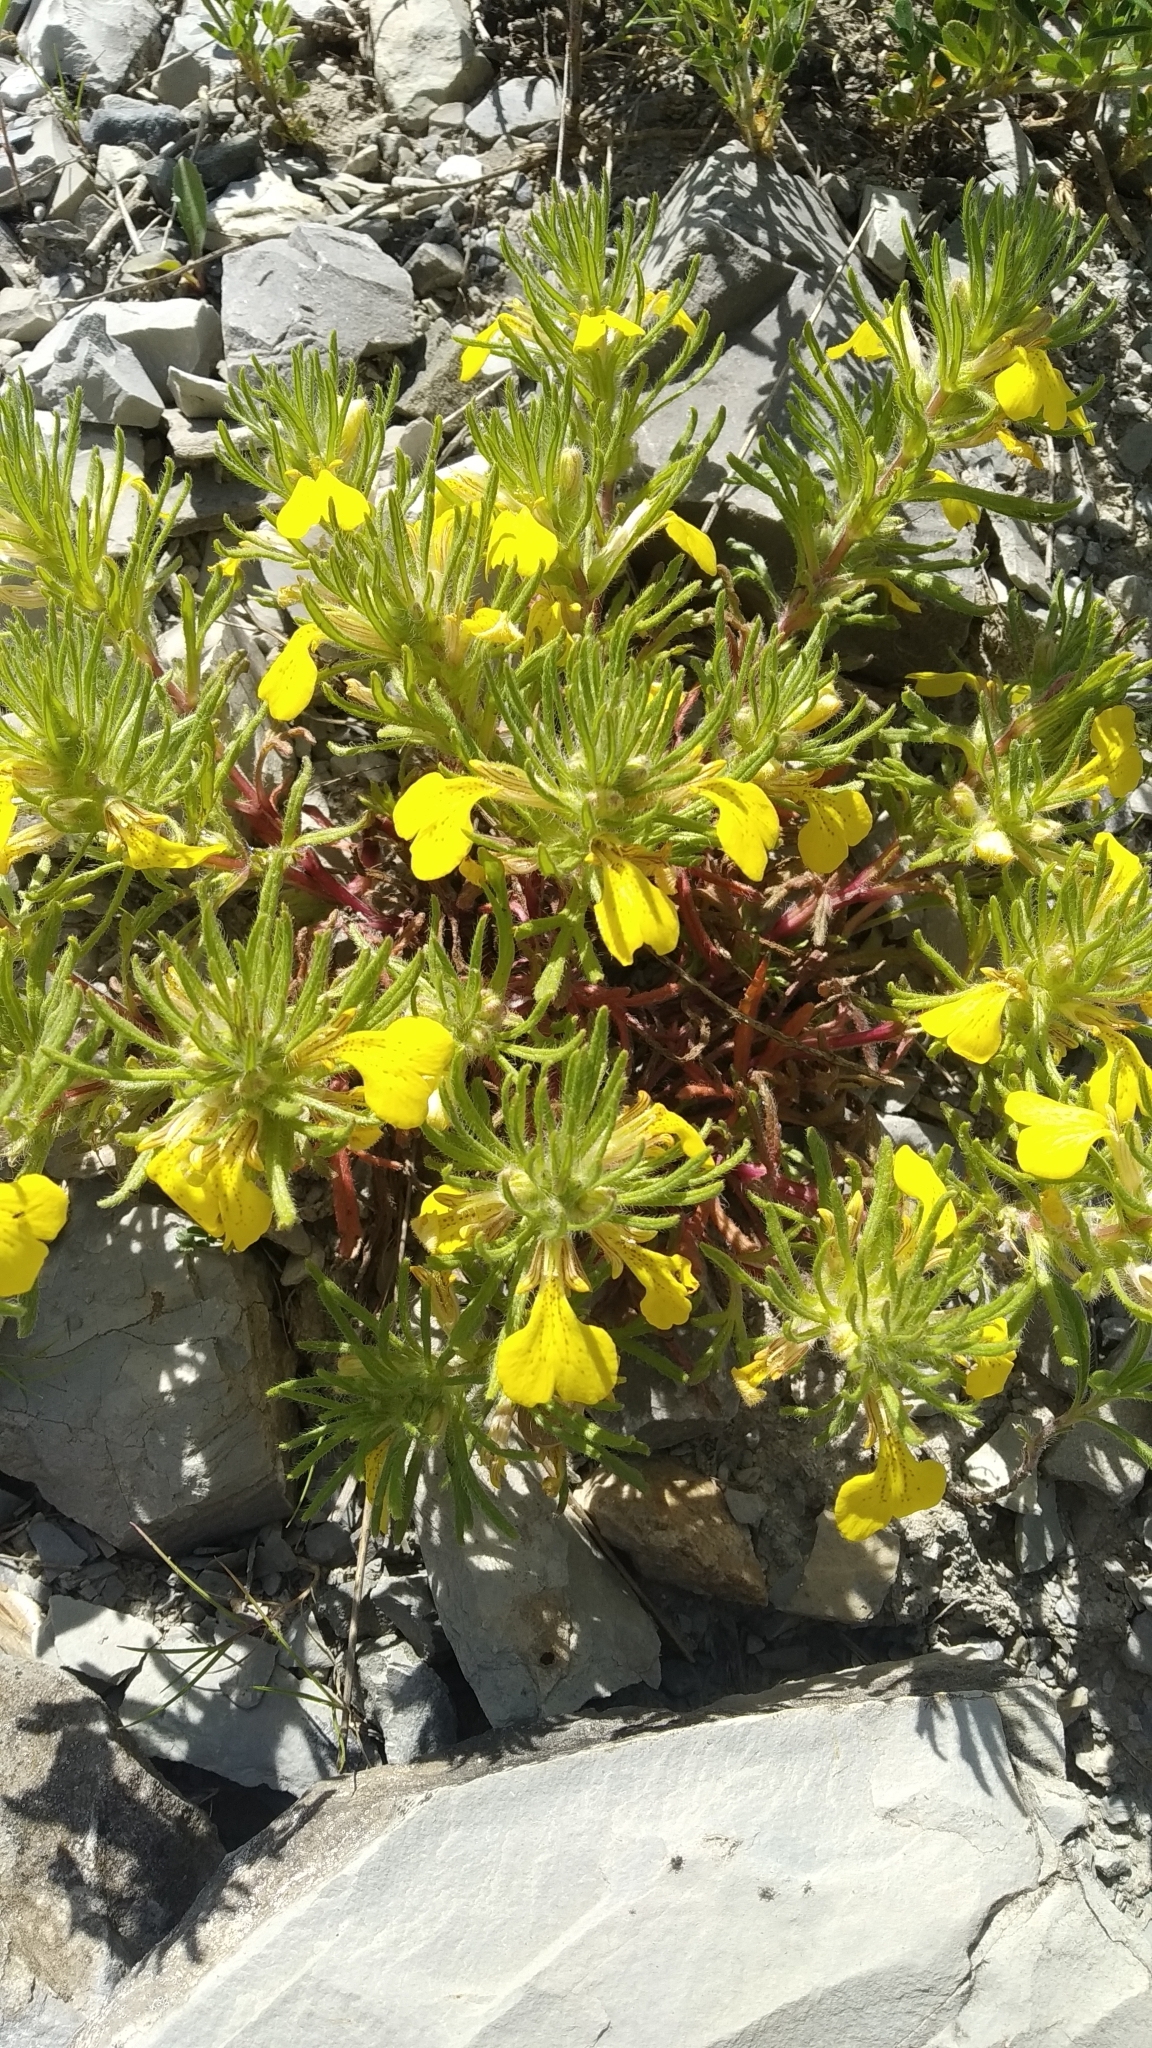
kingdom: Plantae
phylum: Tracheophyta
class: Magnoliopsida
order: Lamiales
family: Lamiaceae
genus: Ajuga
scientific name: Ajuga chamaepitys
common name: Ground-pine
